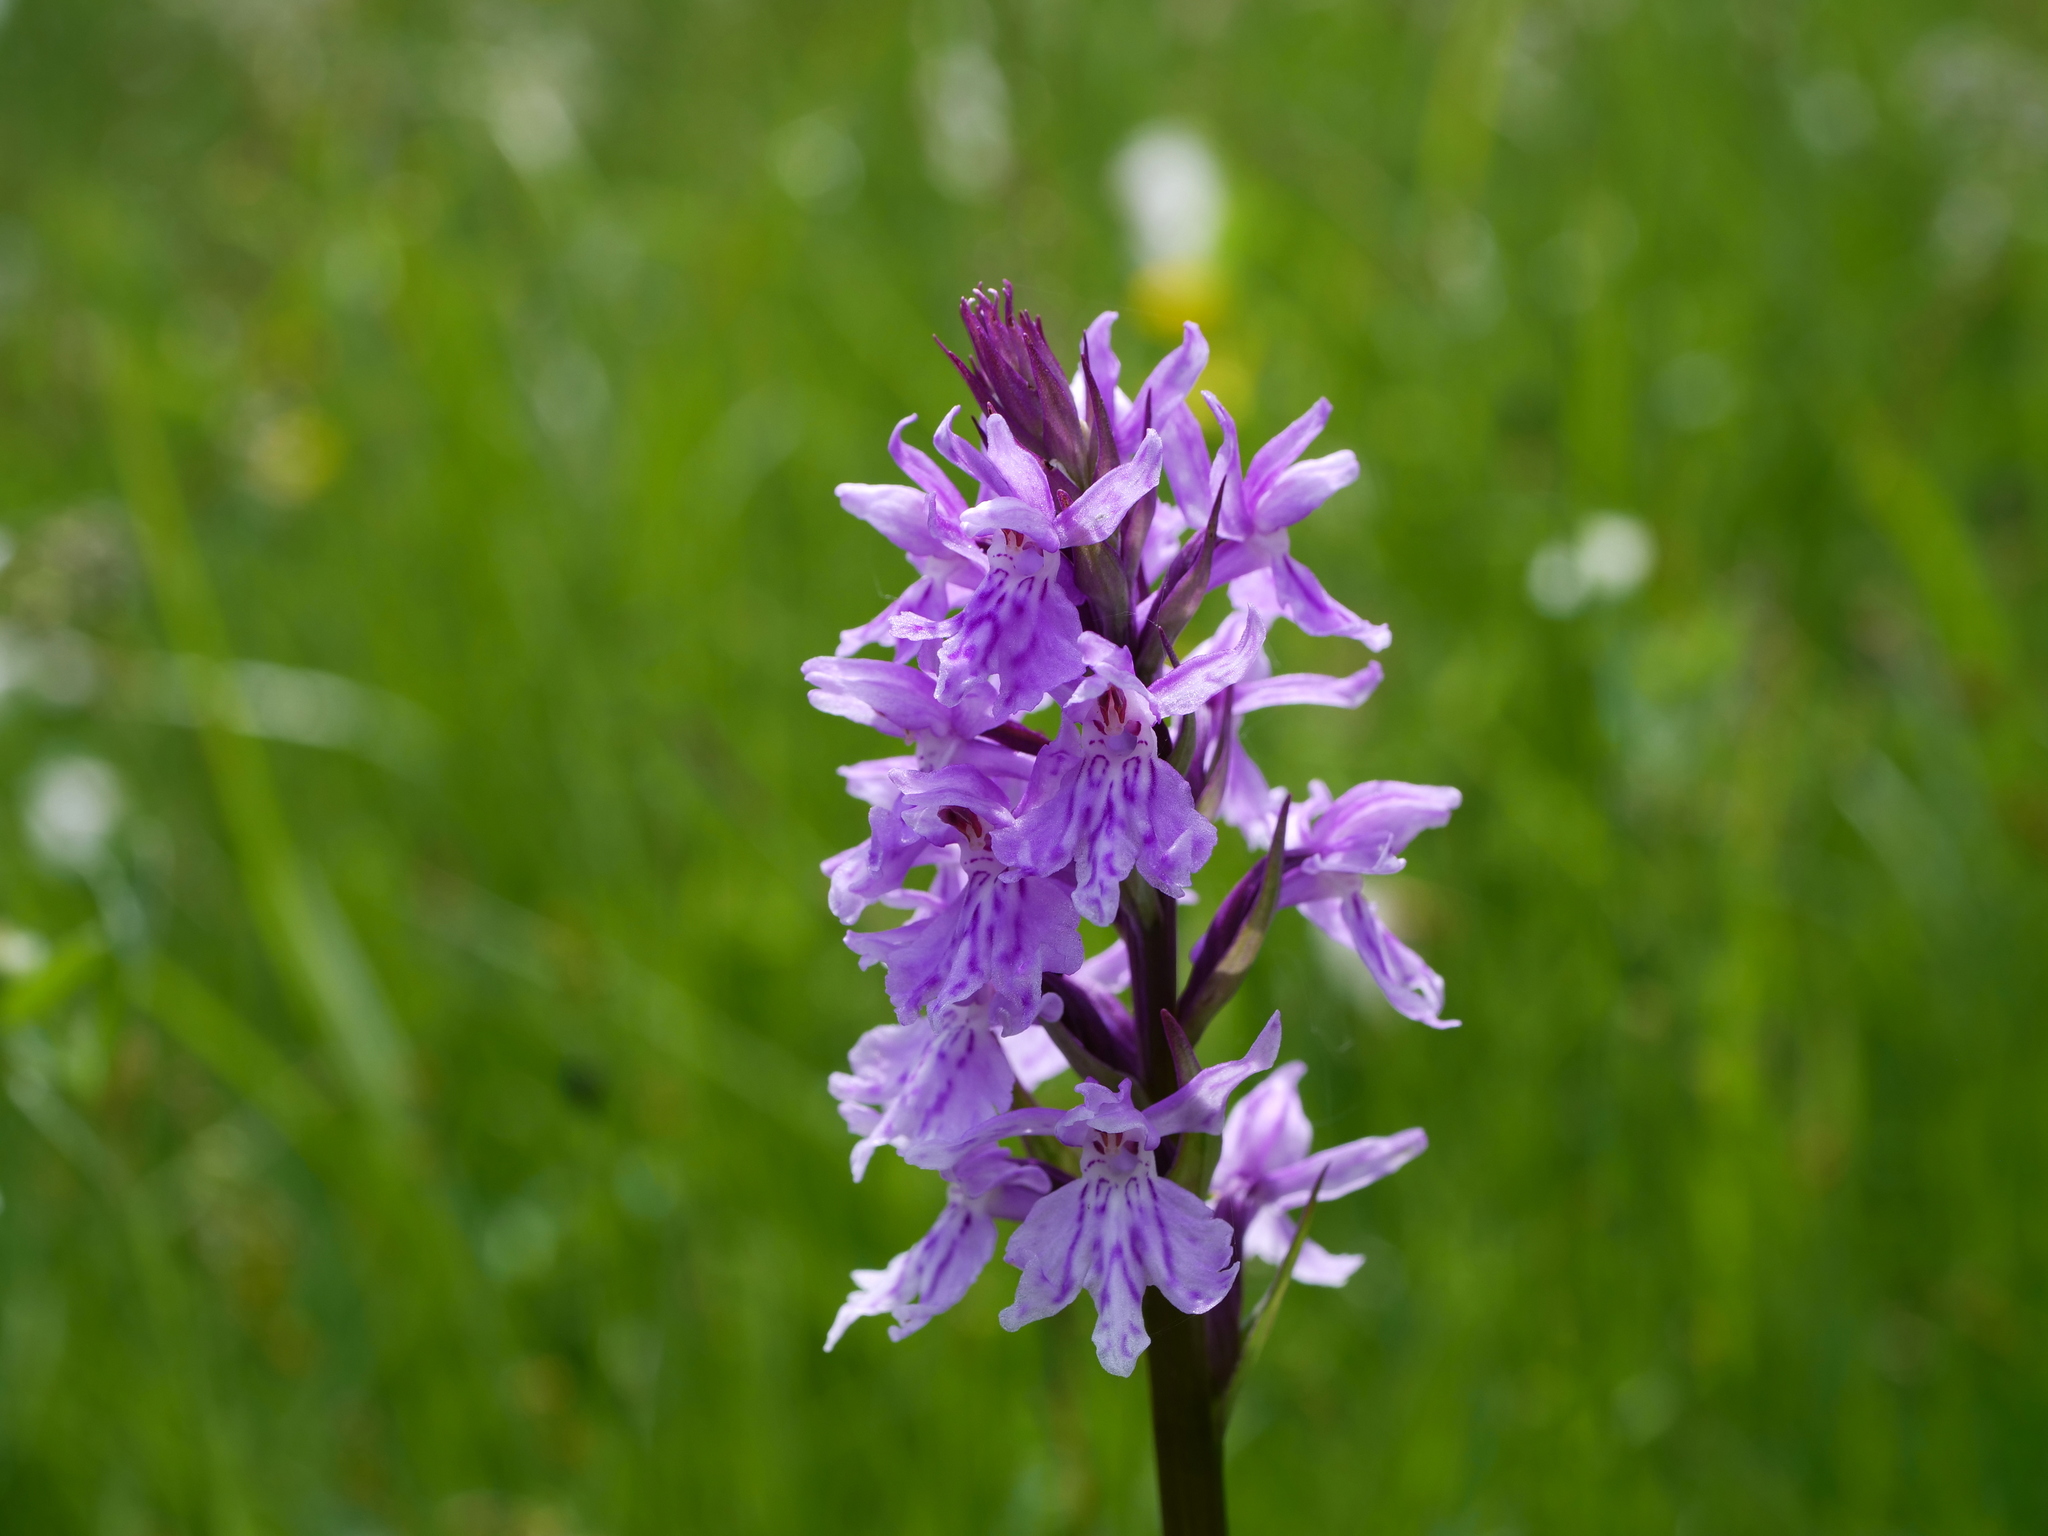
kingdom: Plantae
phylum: Tracheophyta
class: Liliopsida
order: Asparagales
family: Orchidaceae
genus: Dactylorhiza
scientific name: Dactylorhiza maculata
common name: Heath spotted-orchid
